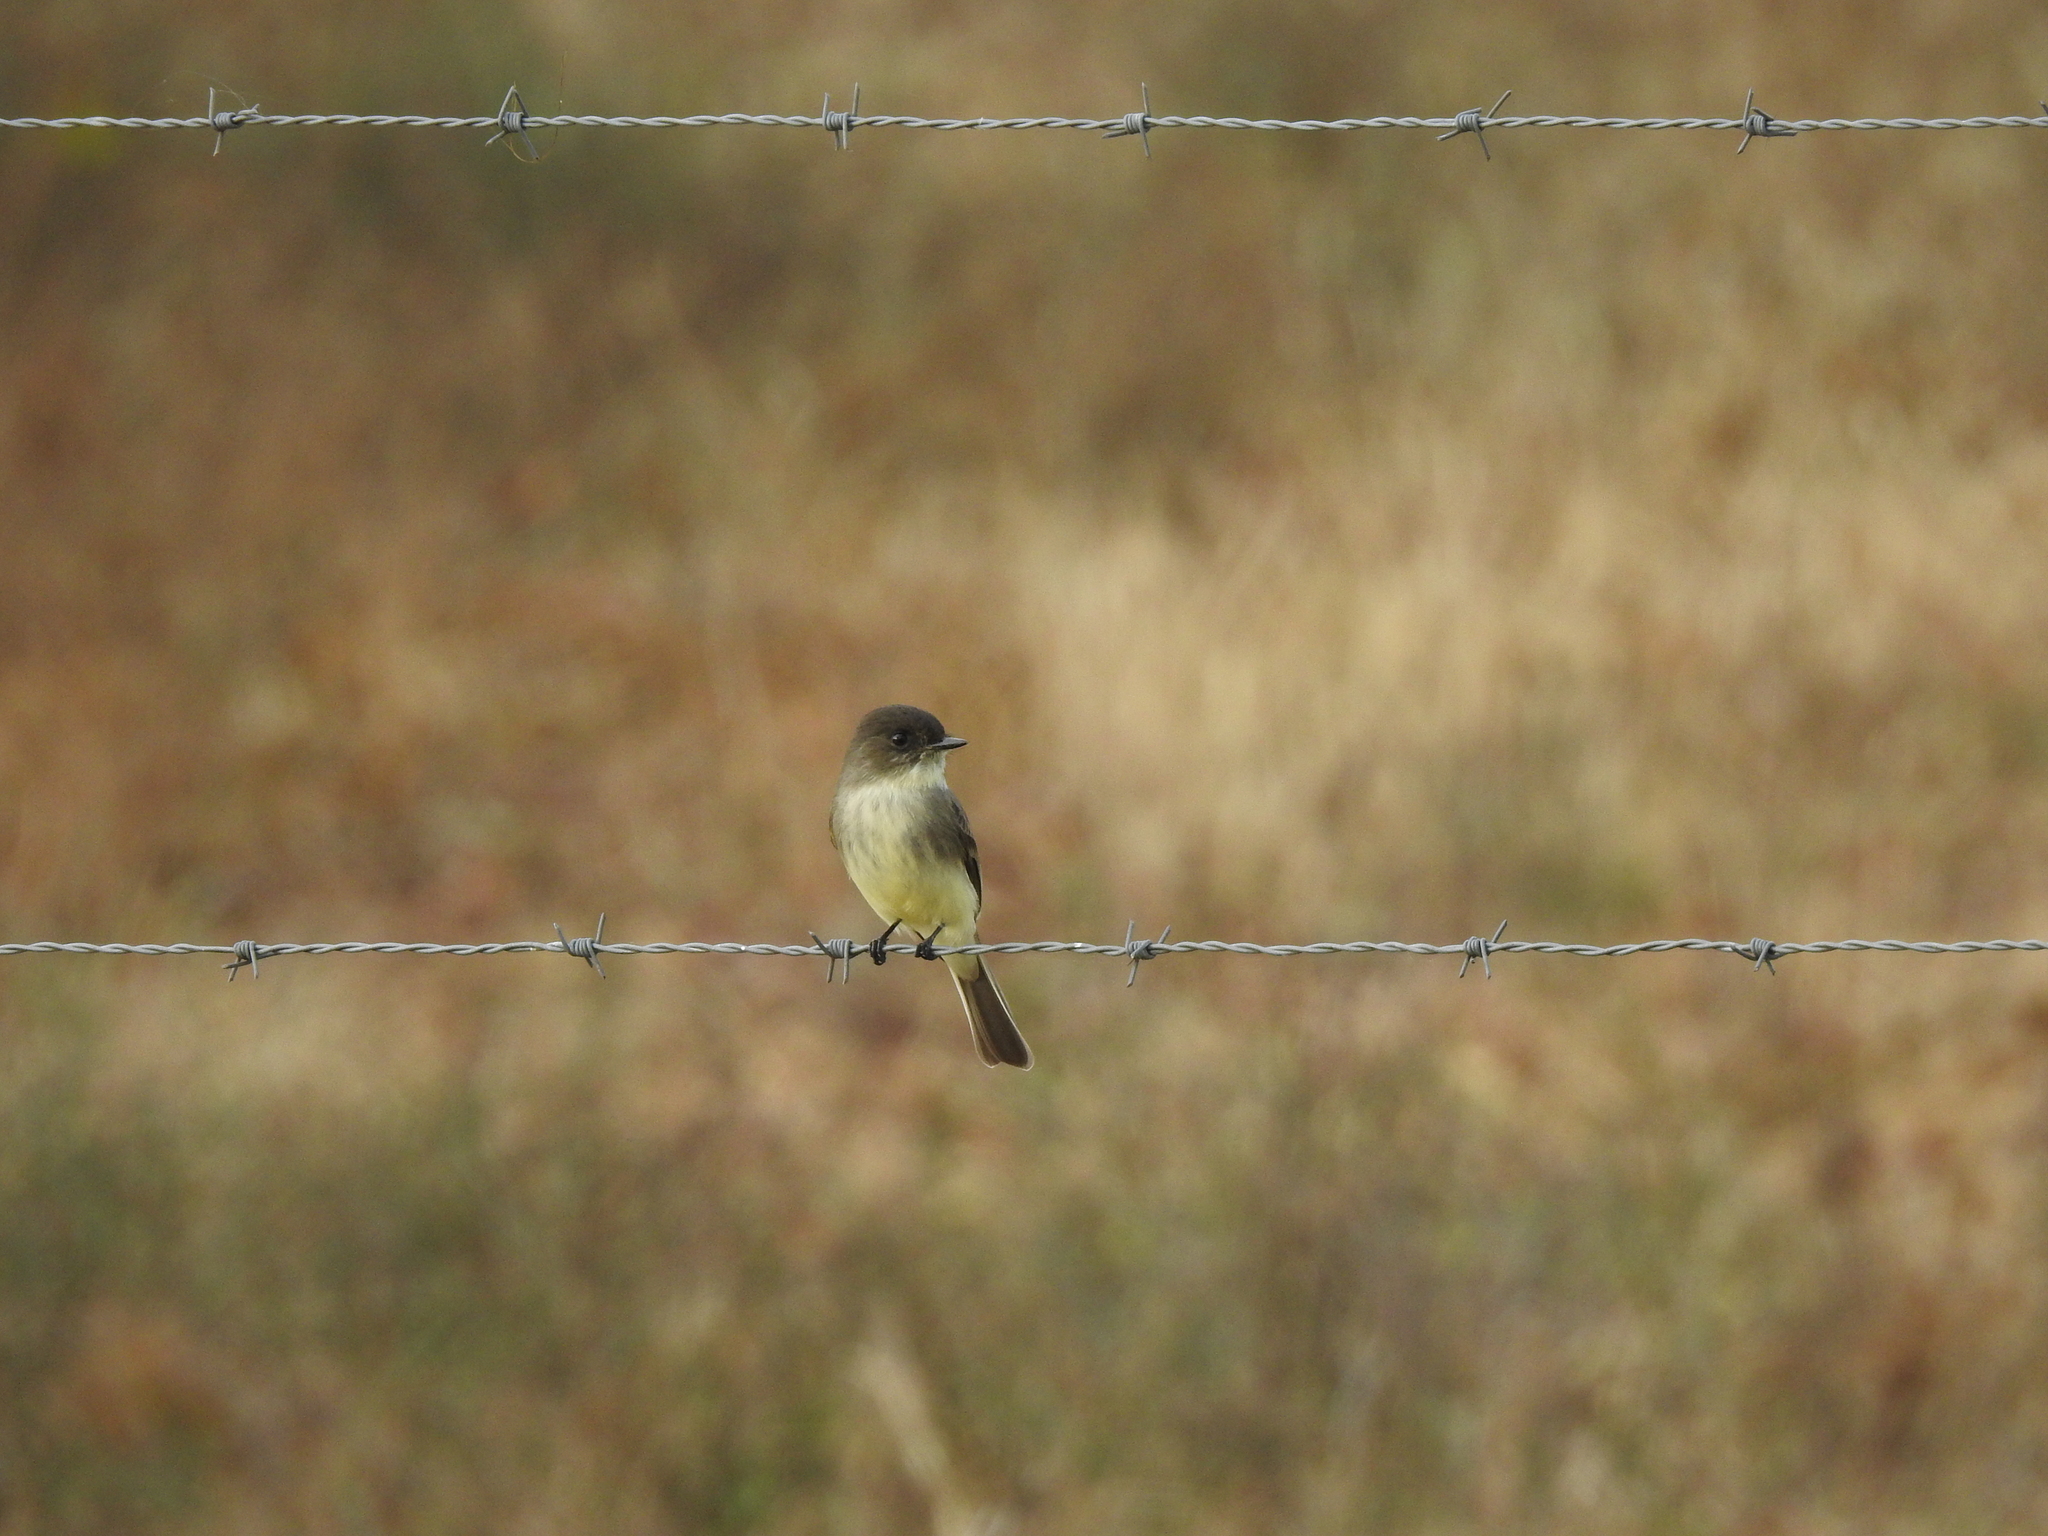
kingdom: Animalia
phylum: Chordata
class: Aves
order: Passeriformes
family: Tyrannidae
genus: Sayornis
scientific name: Sayornis phoebe
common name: Eastern phoebe
